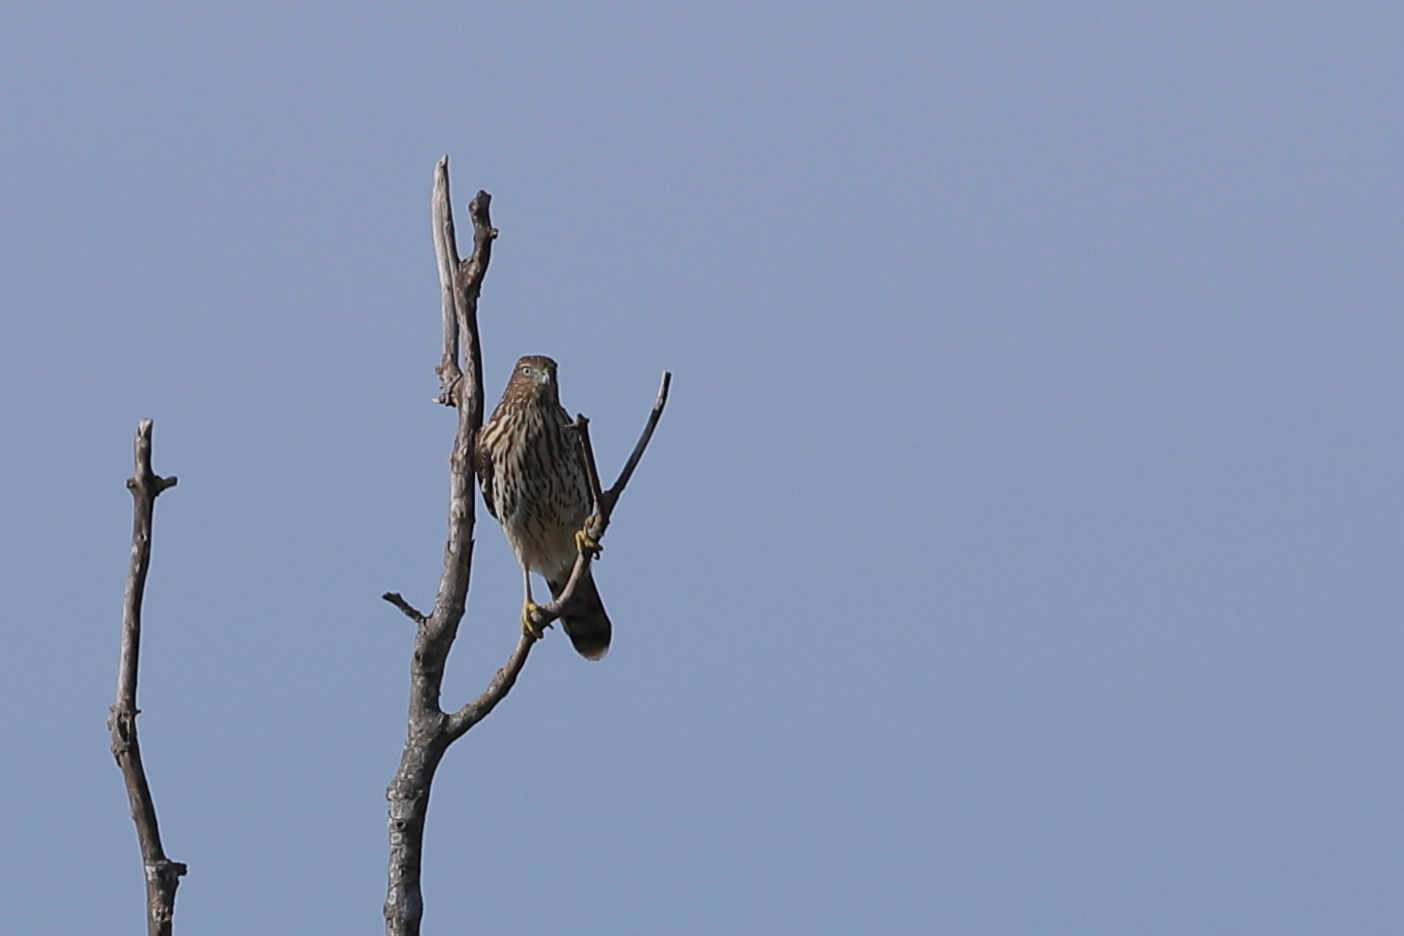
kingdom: Animalia
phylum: Chordata
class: Aves
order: Accipitriformes
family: Accipitridae
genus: Accipiter
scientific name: Accipiter cooperii
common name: Cooper's hawk
